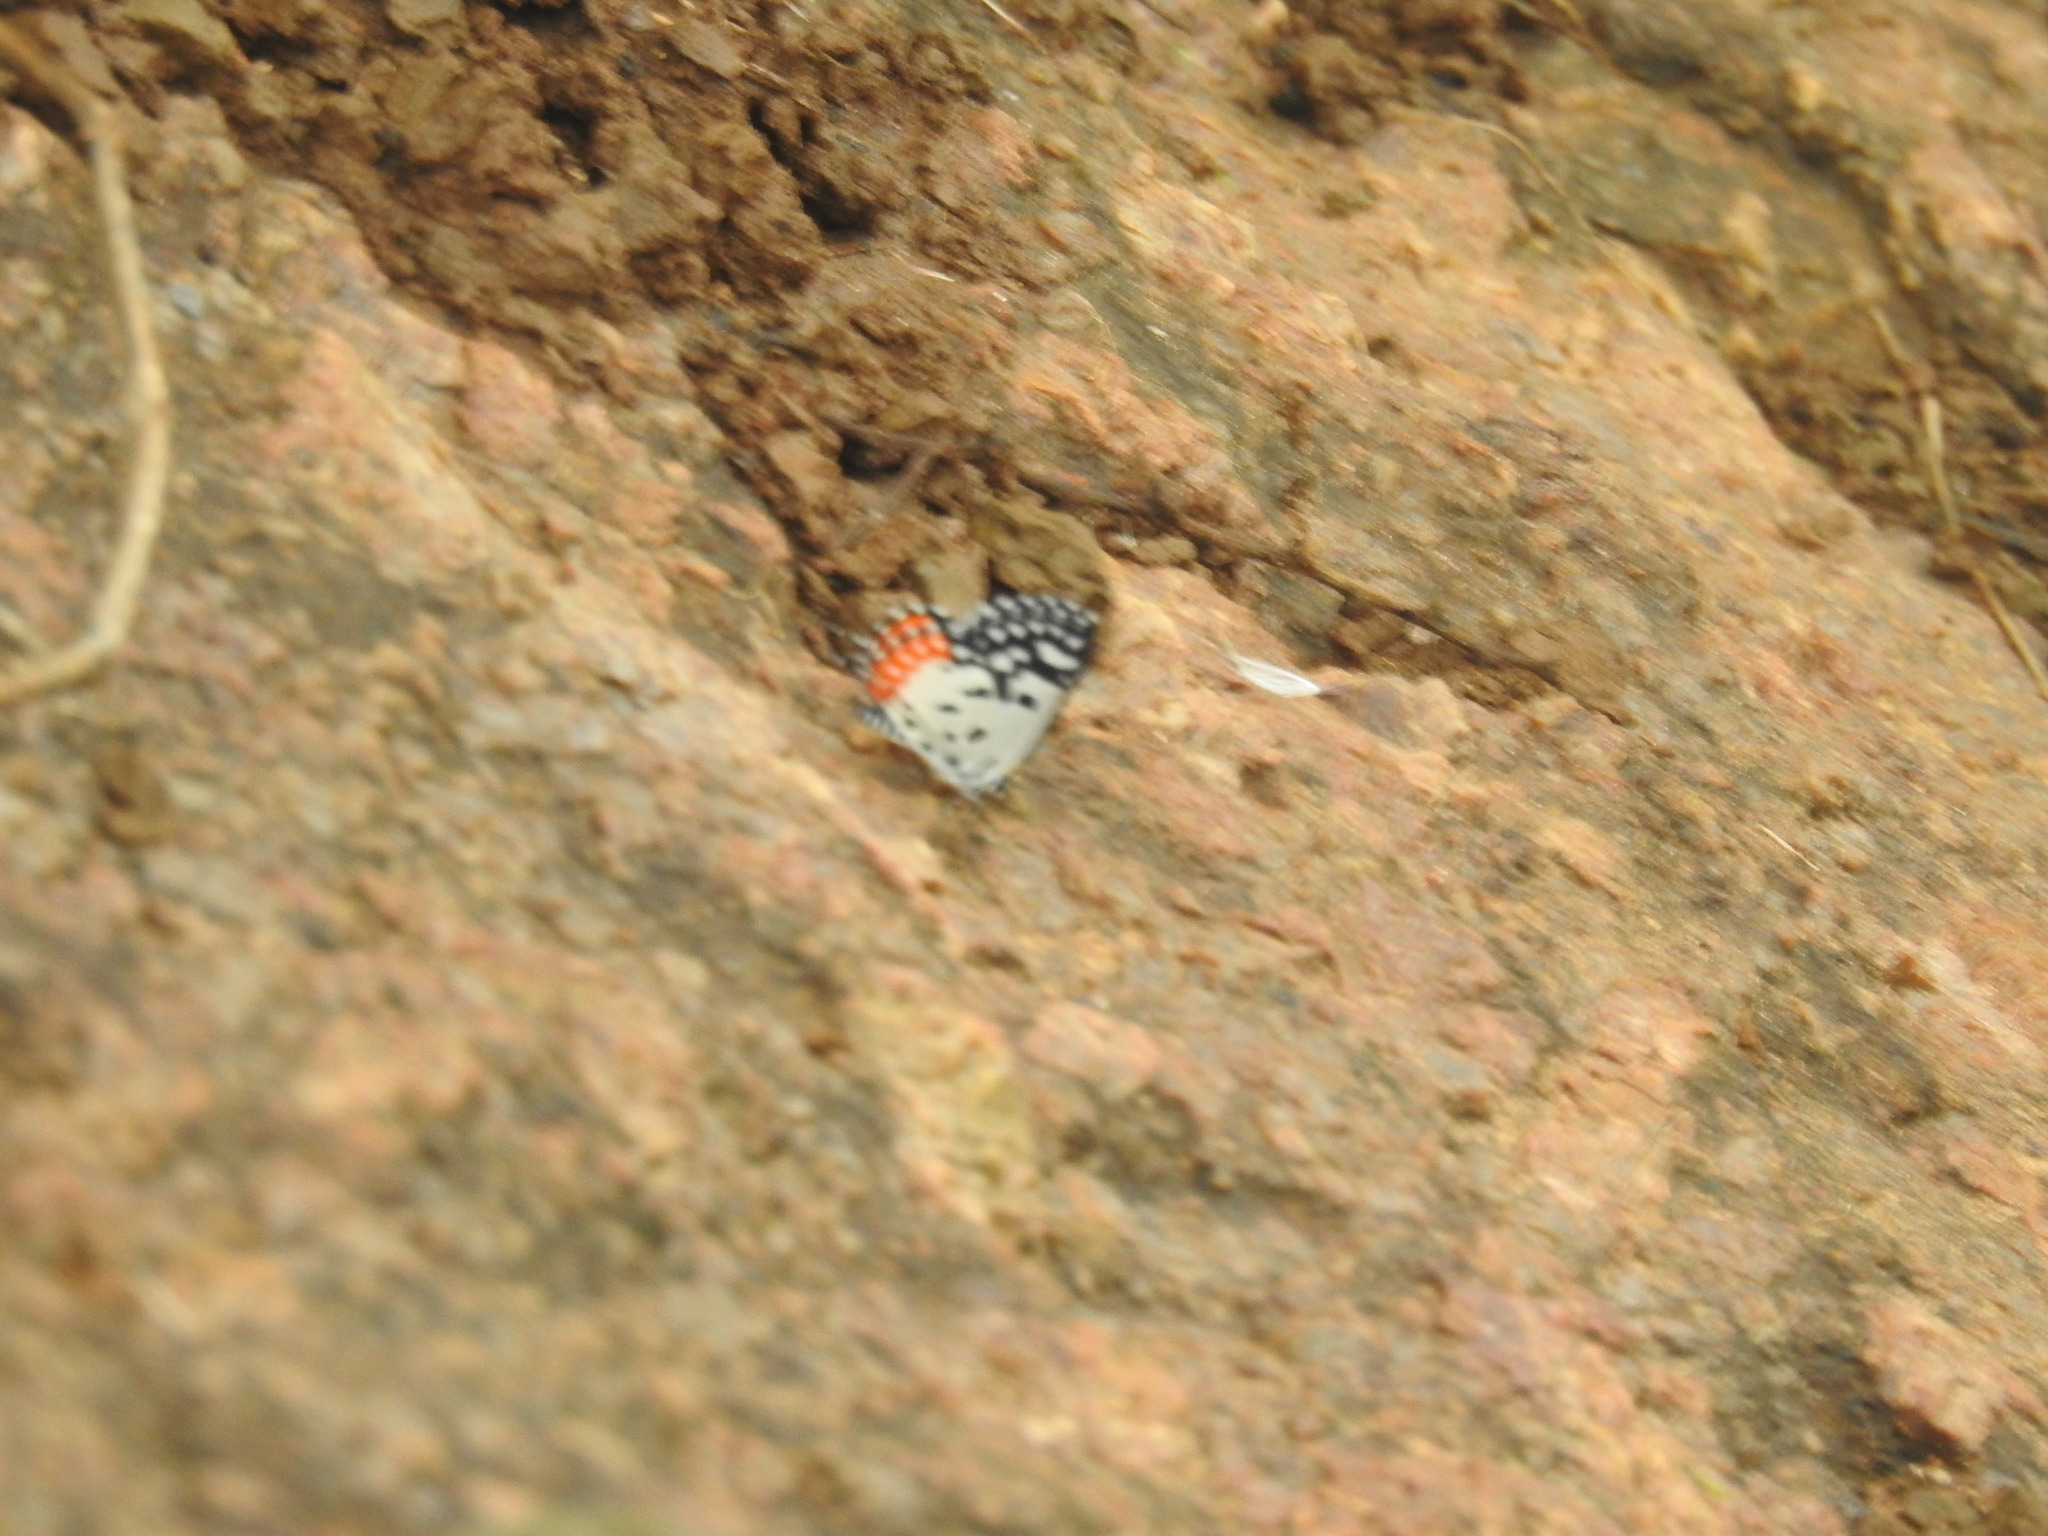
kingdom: Animalia
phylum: Arthropoda
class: Insecta
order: Lepidoptera
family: Lycaenidae
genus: Talicada
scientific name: Talicada nyseus
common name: Red pierrot
